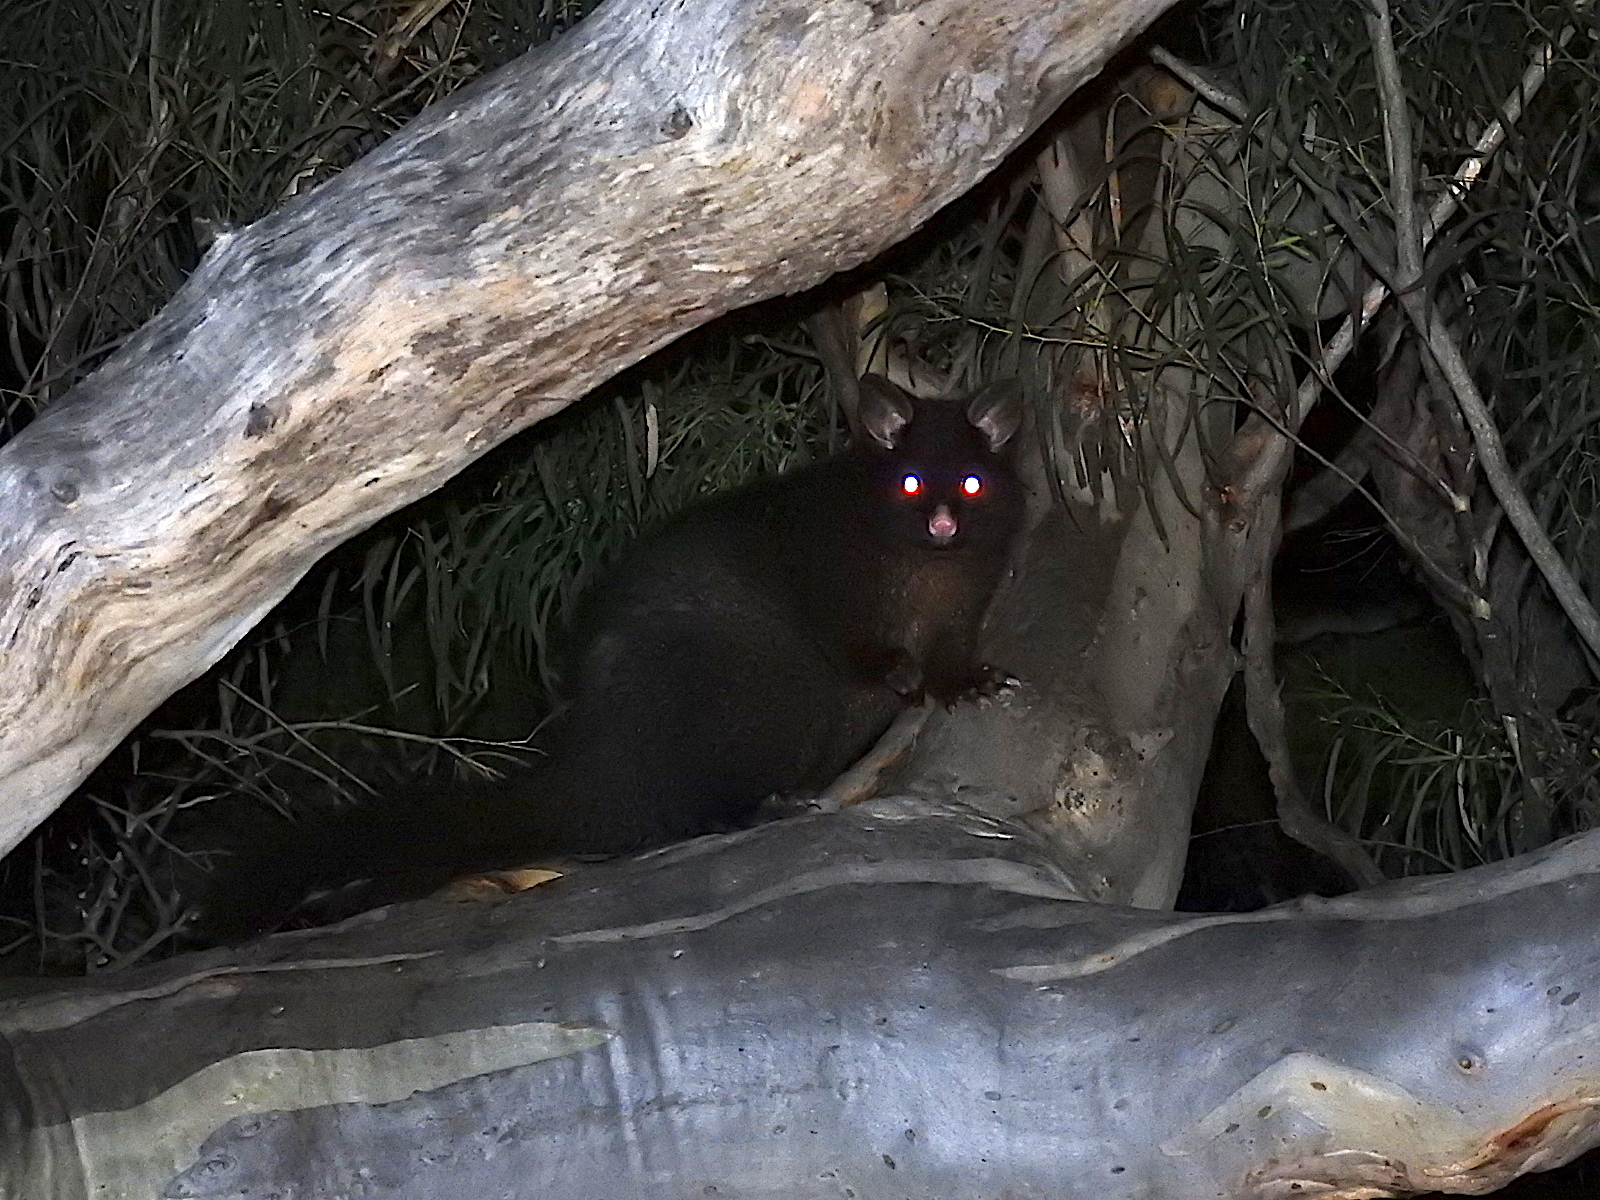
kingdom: Animalia
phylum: Chordata
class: Mammalia
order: Diprotodontia
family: Phalangeridae
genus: Trichosurus
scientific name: Trichosurus vulpecula
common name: Common brushtail
